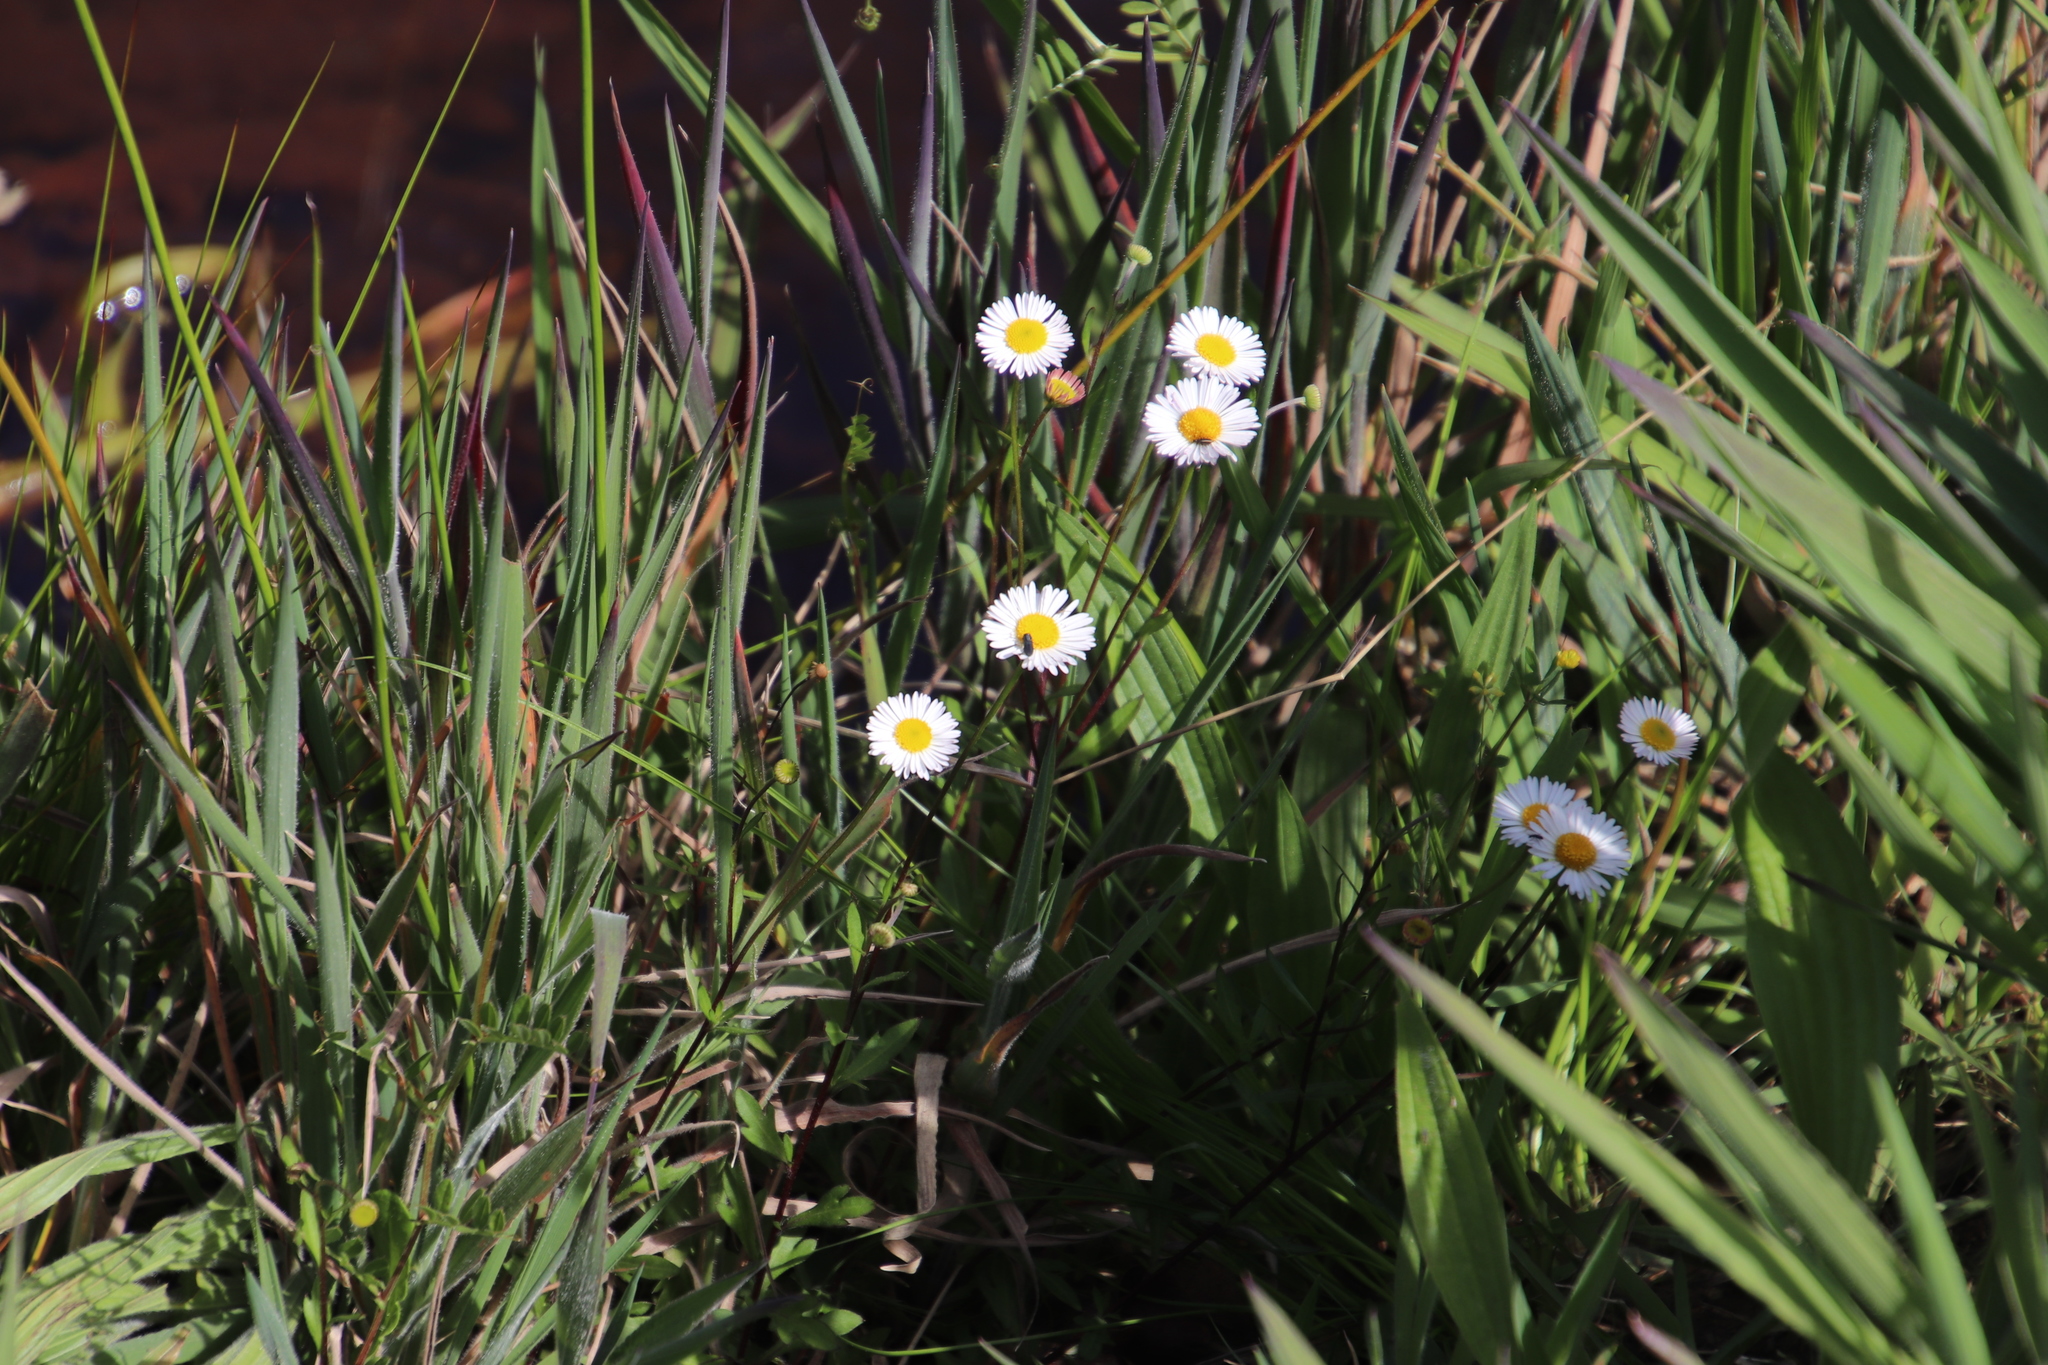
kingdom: Plantae
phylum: Tracheophyta
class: Magnoliopsida
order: Asterales
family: Asteraceae
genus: Erigeron
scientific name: Erigeron karvinskianus
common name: Mexican fleabane
